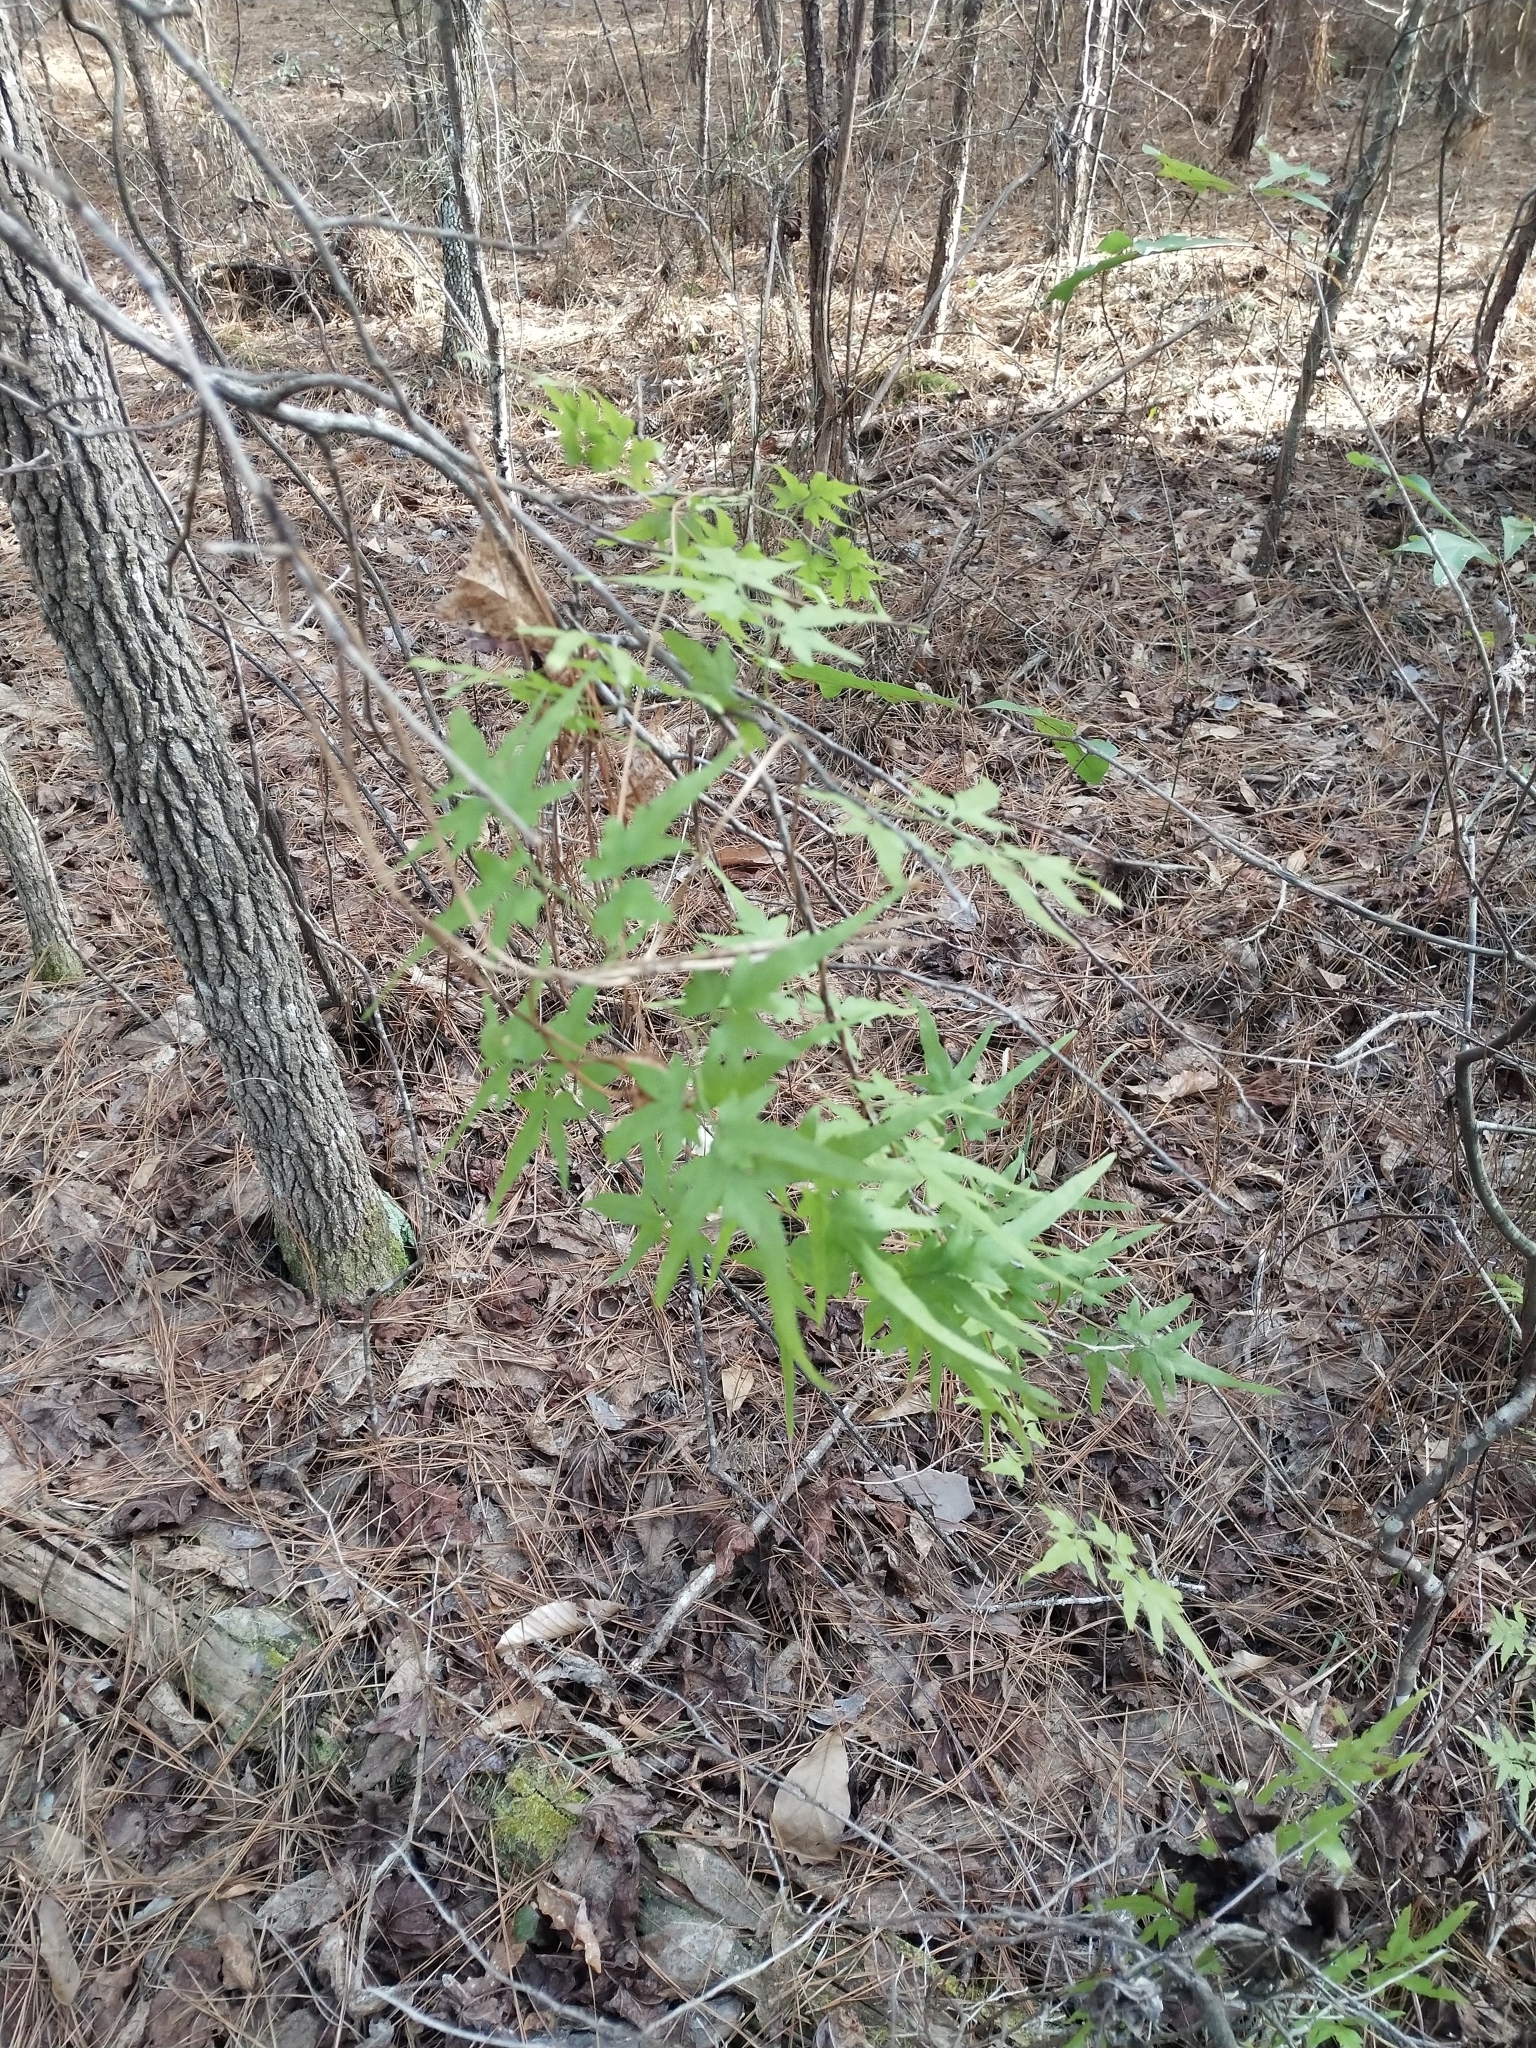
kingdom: Plantae
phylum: Tracheophyta
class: Polypodiopsida
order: Schizaeales
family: Lygodiaceae
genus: Lygodium
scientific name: Lygodium japonicum
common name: Japanese climbing fern
